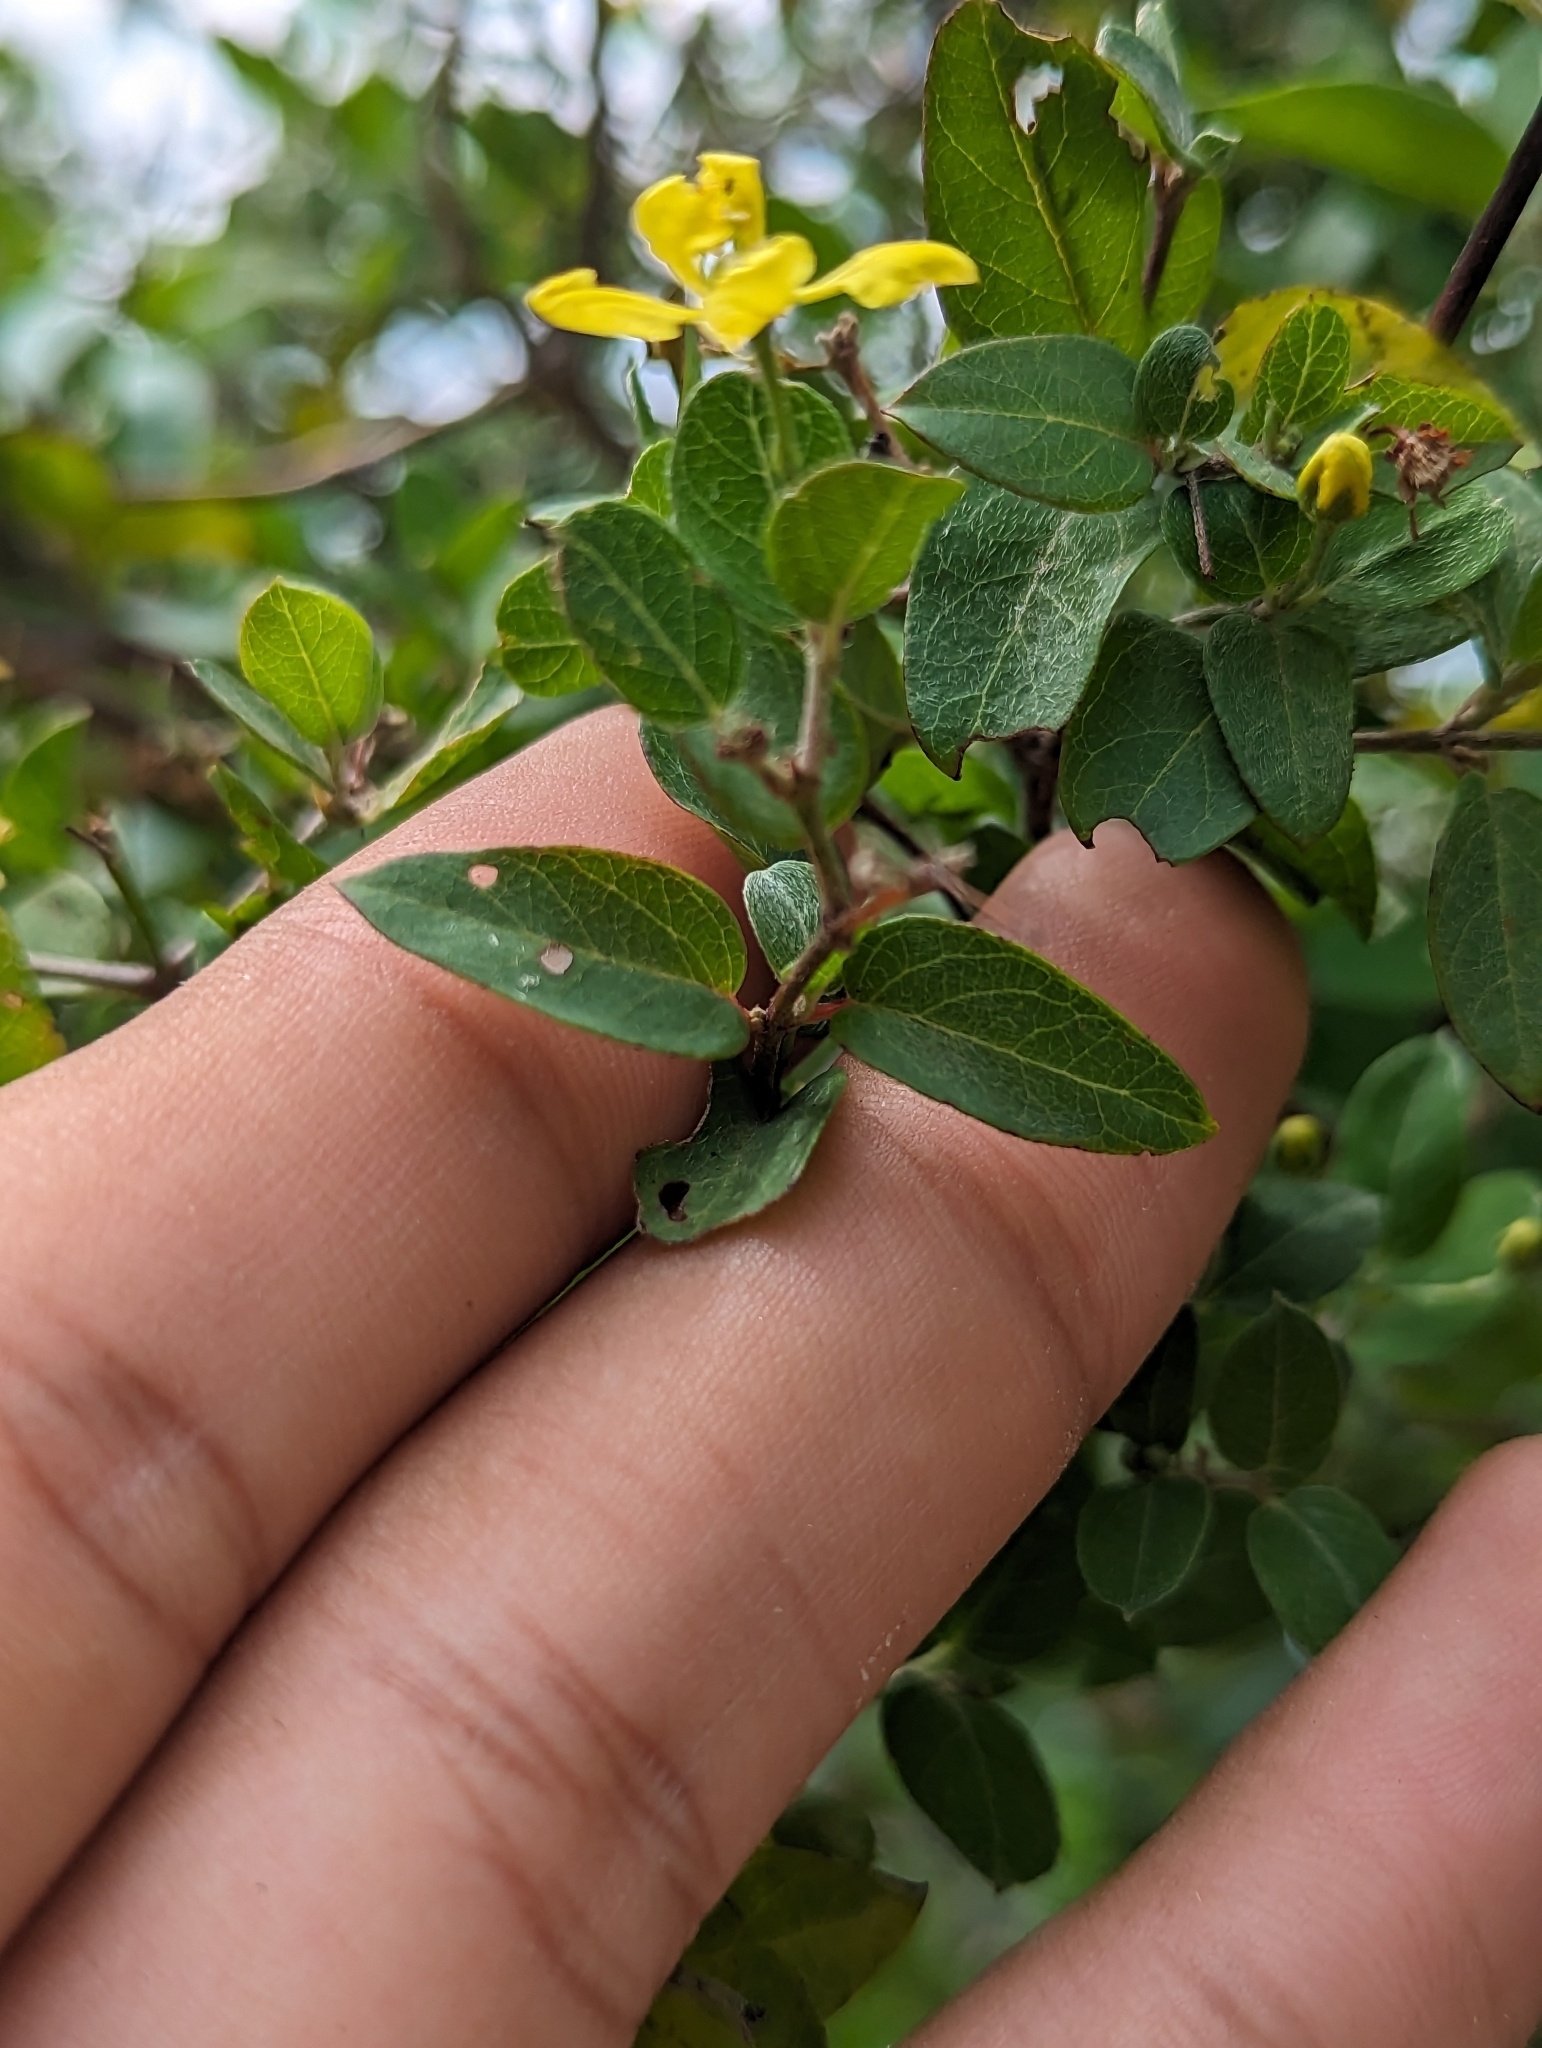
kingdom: Plantae
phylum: Tracheophyta
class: Magnoliopsida
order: Malpighiales
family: Malpighiaceae
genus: Cottsia
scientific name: Cottsia californica
